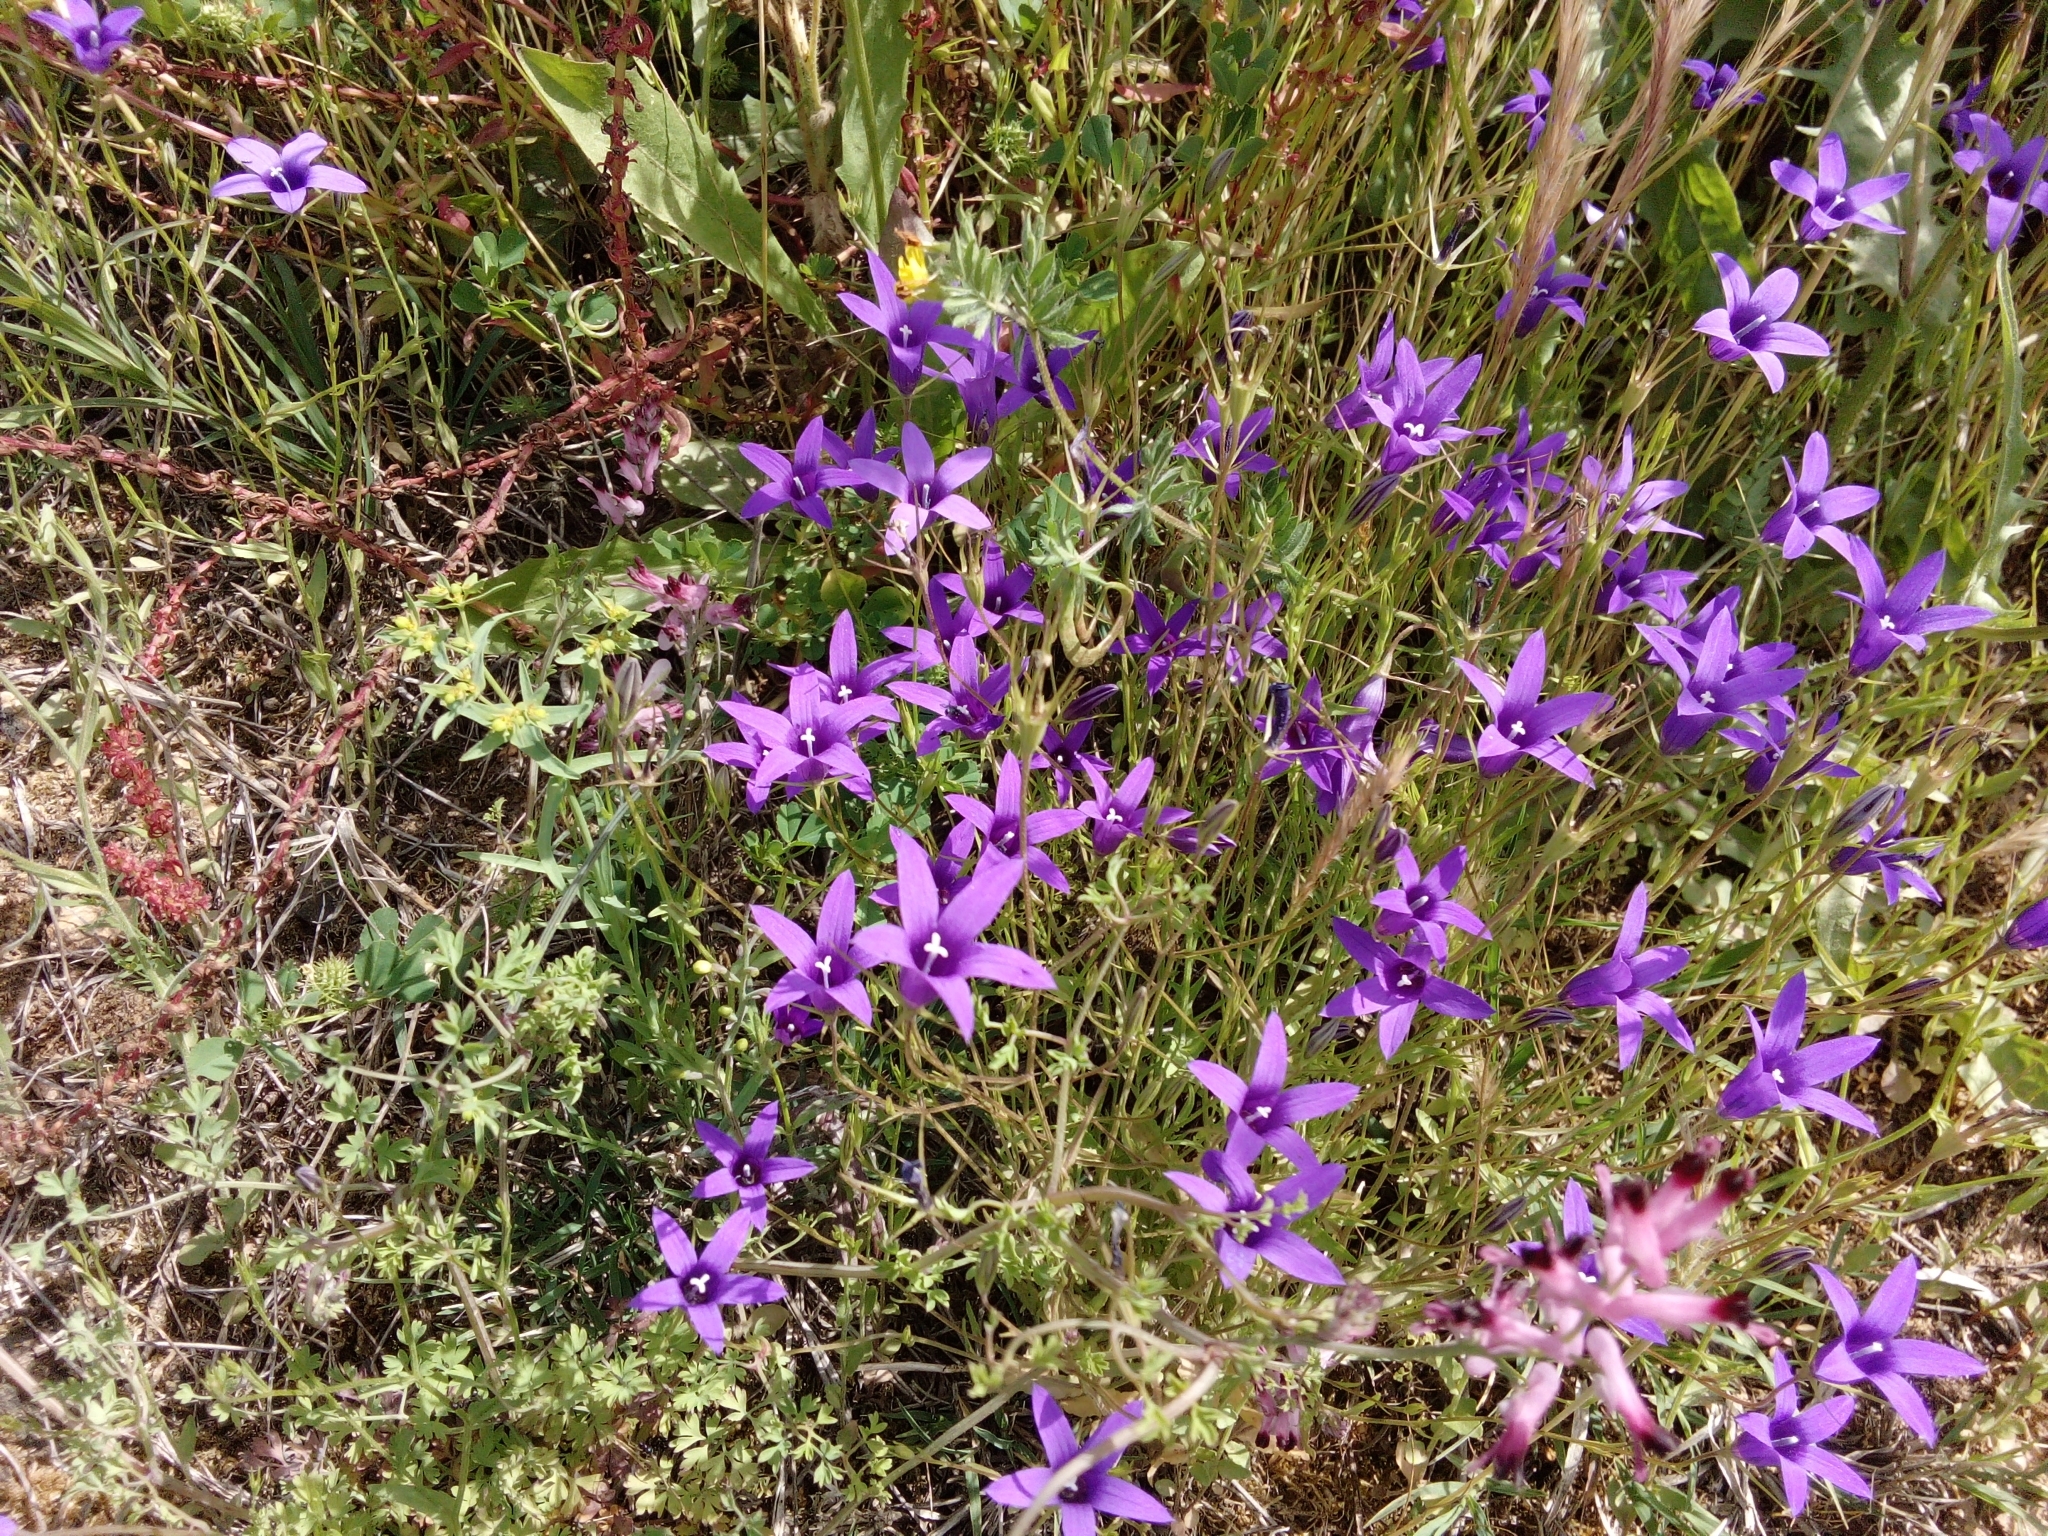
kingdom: Plantae
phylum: Tracheophyta
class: Magnoliopsida
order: Asterales
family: Campanulaceae
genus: Campanula
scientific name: Campanula lusitanica
